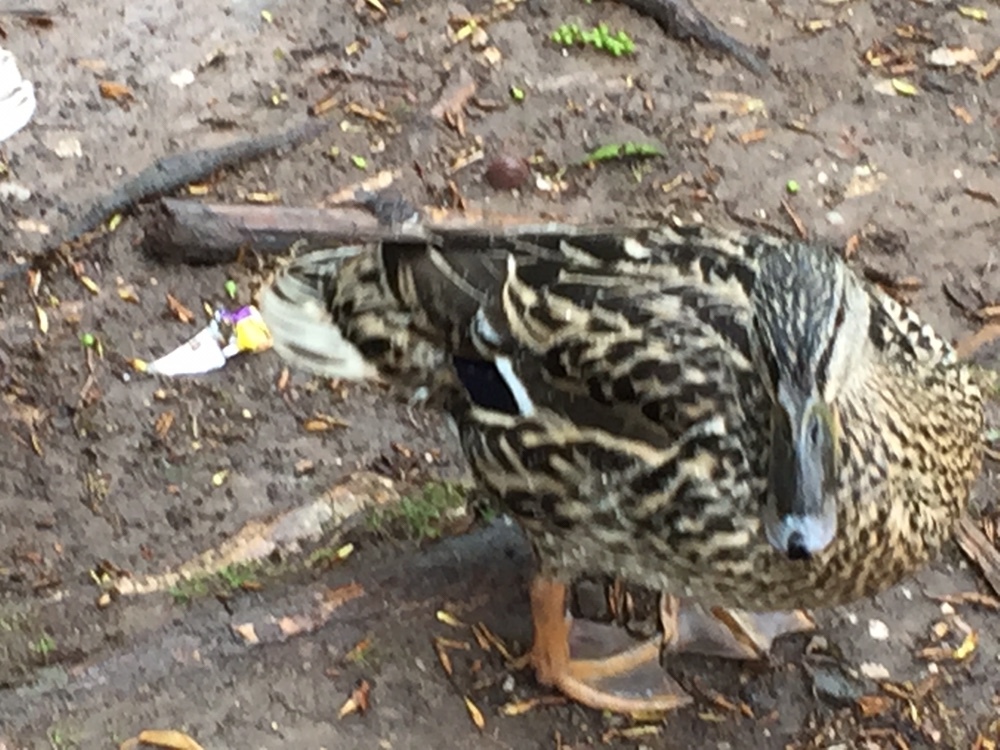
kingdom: Animalia
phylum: Chordata
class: Aves
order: Anseriformes
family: Anatidae
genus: Anas
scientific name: Anas platyrhynchos
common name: Mallard
